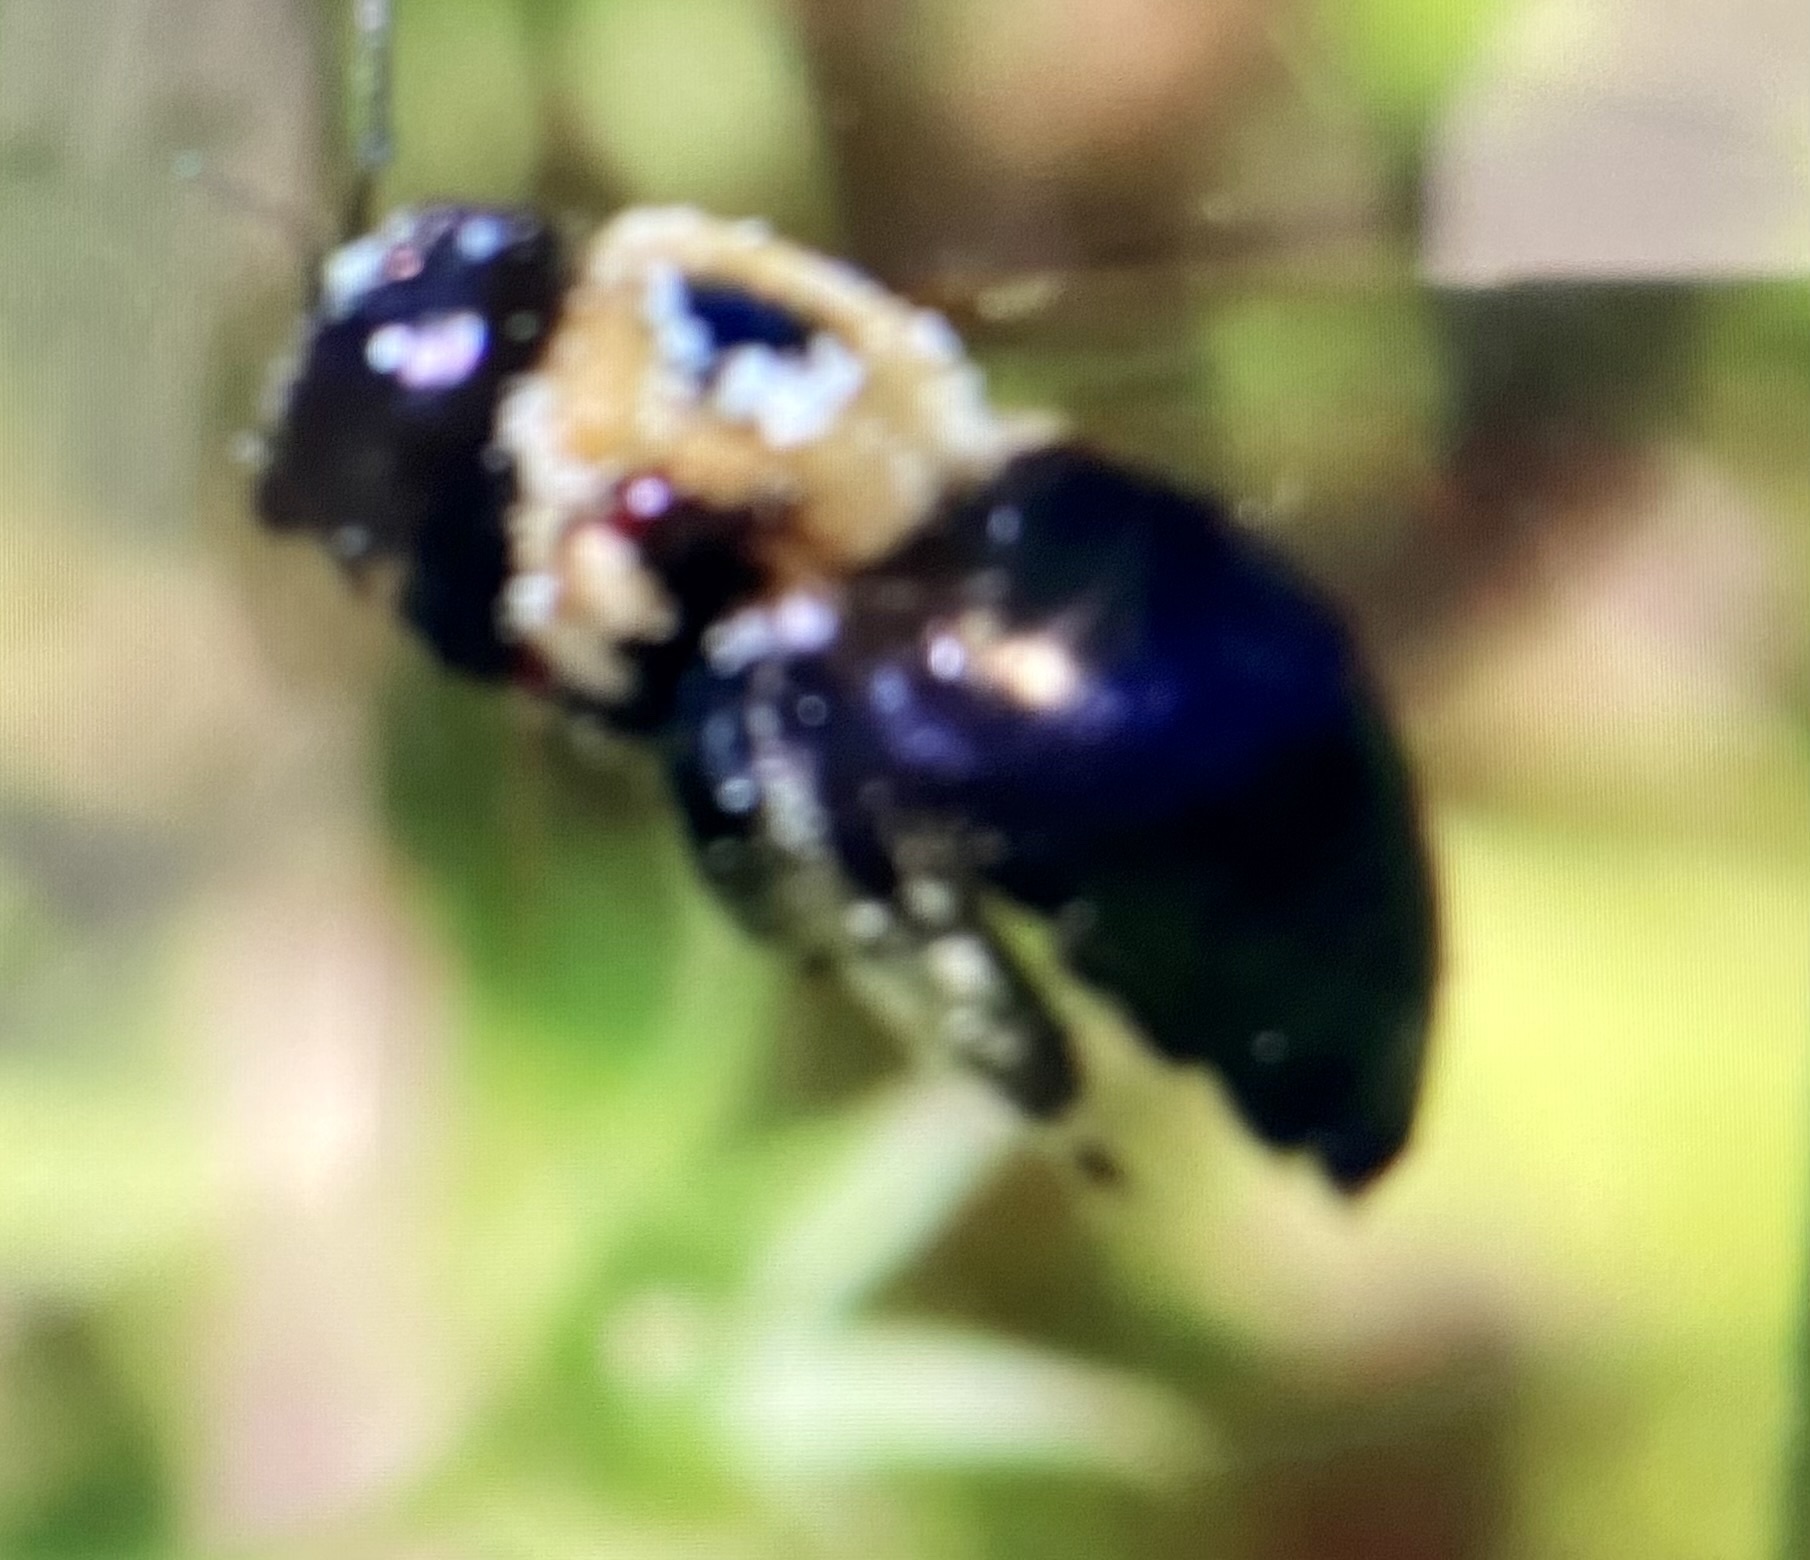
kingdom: Animalia
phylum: Arthropoda
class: Insecta
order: Hymenoptera
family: Apidae
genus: Xylocopa
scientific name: Xylocopa virginica
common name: Carpenter bee
